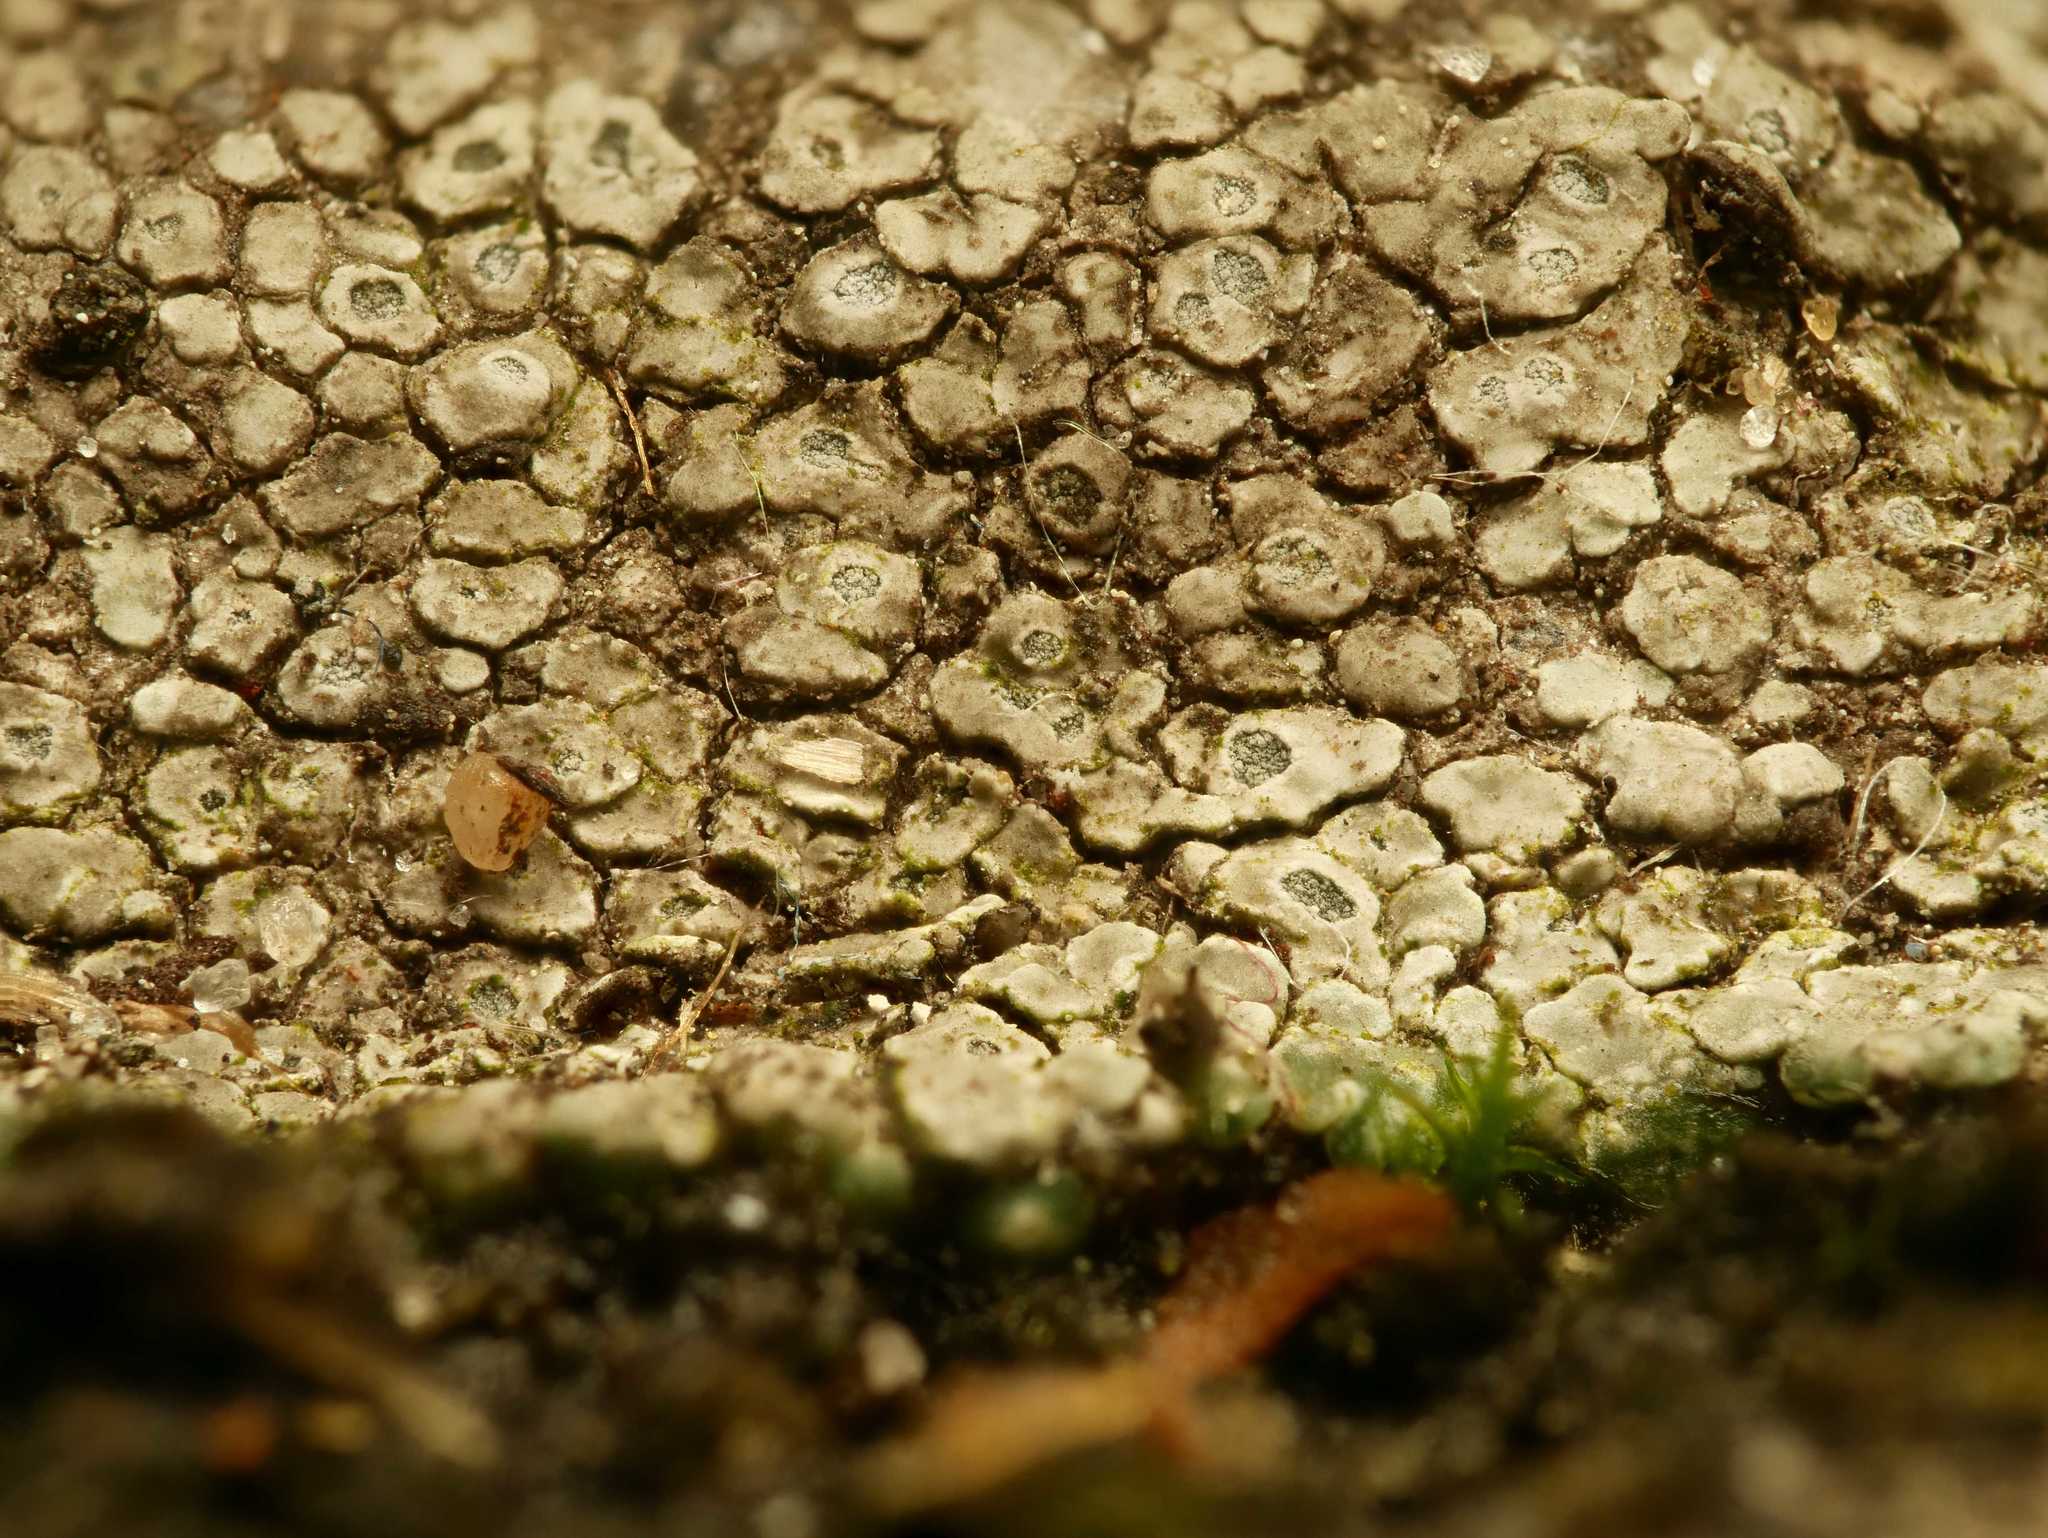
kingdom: Fungi
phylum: Ascomycota
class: Lecanoromycetes
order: Pertusariales
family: Megasporaceae
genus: Circinaria
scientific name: Circinaria contorta
